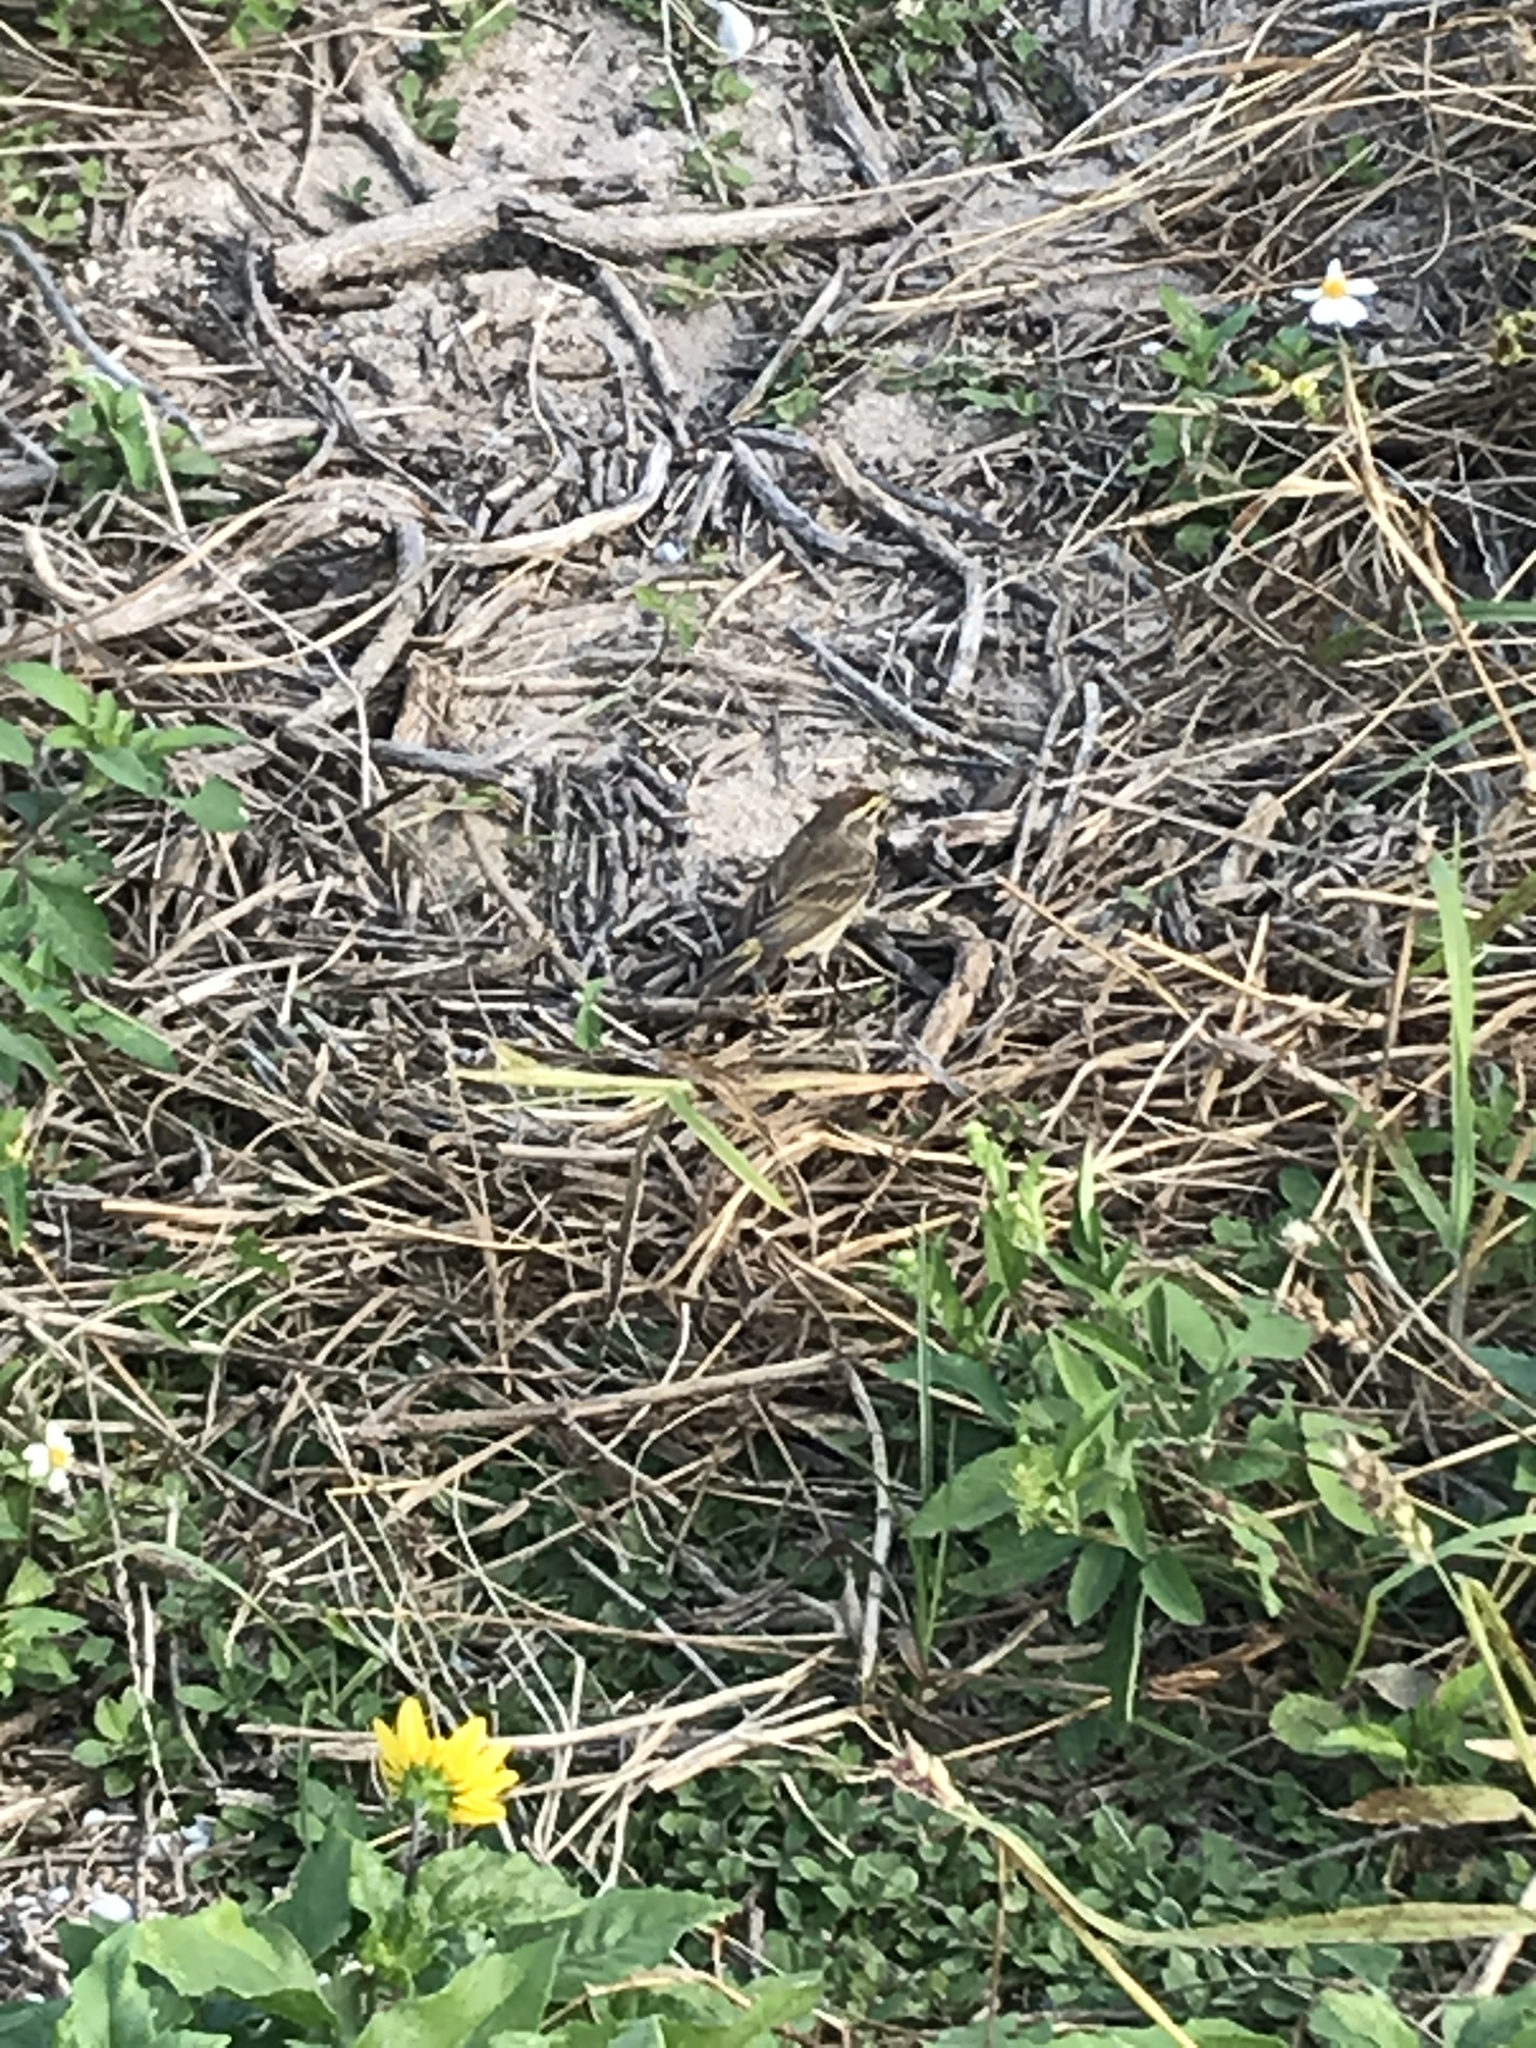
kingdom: Animalia
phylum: Chordata
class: Aves
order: Passeriformes
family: Parulidae
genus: Setophaga
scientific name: Setophaga palmarum
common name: Palm warbler
